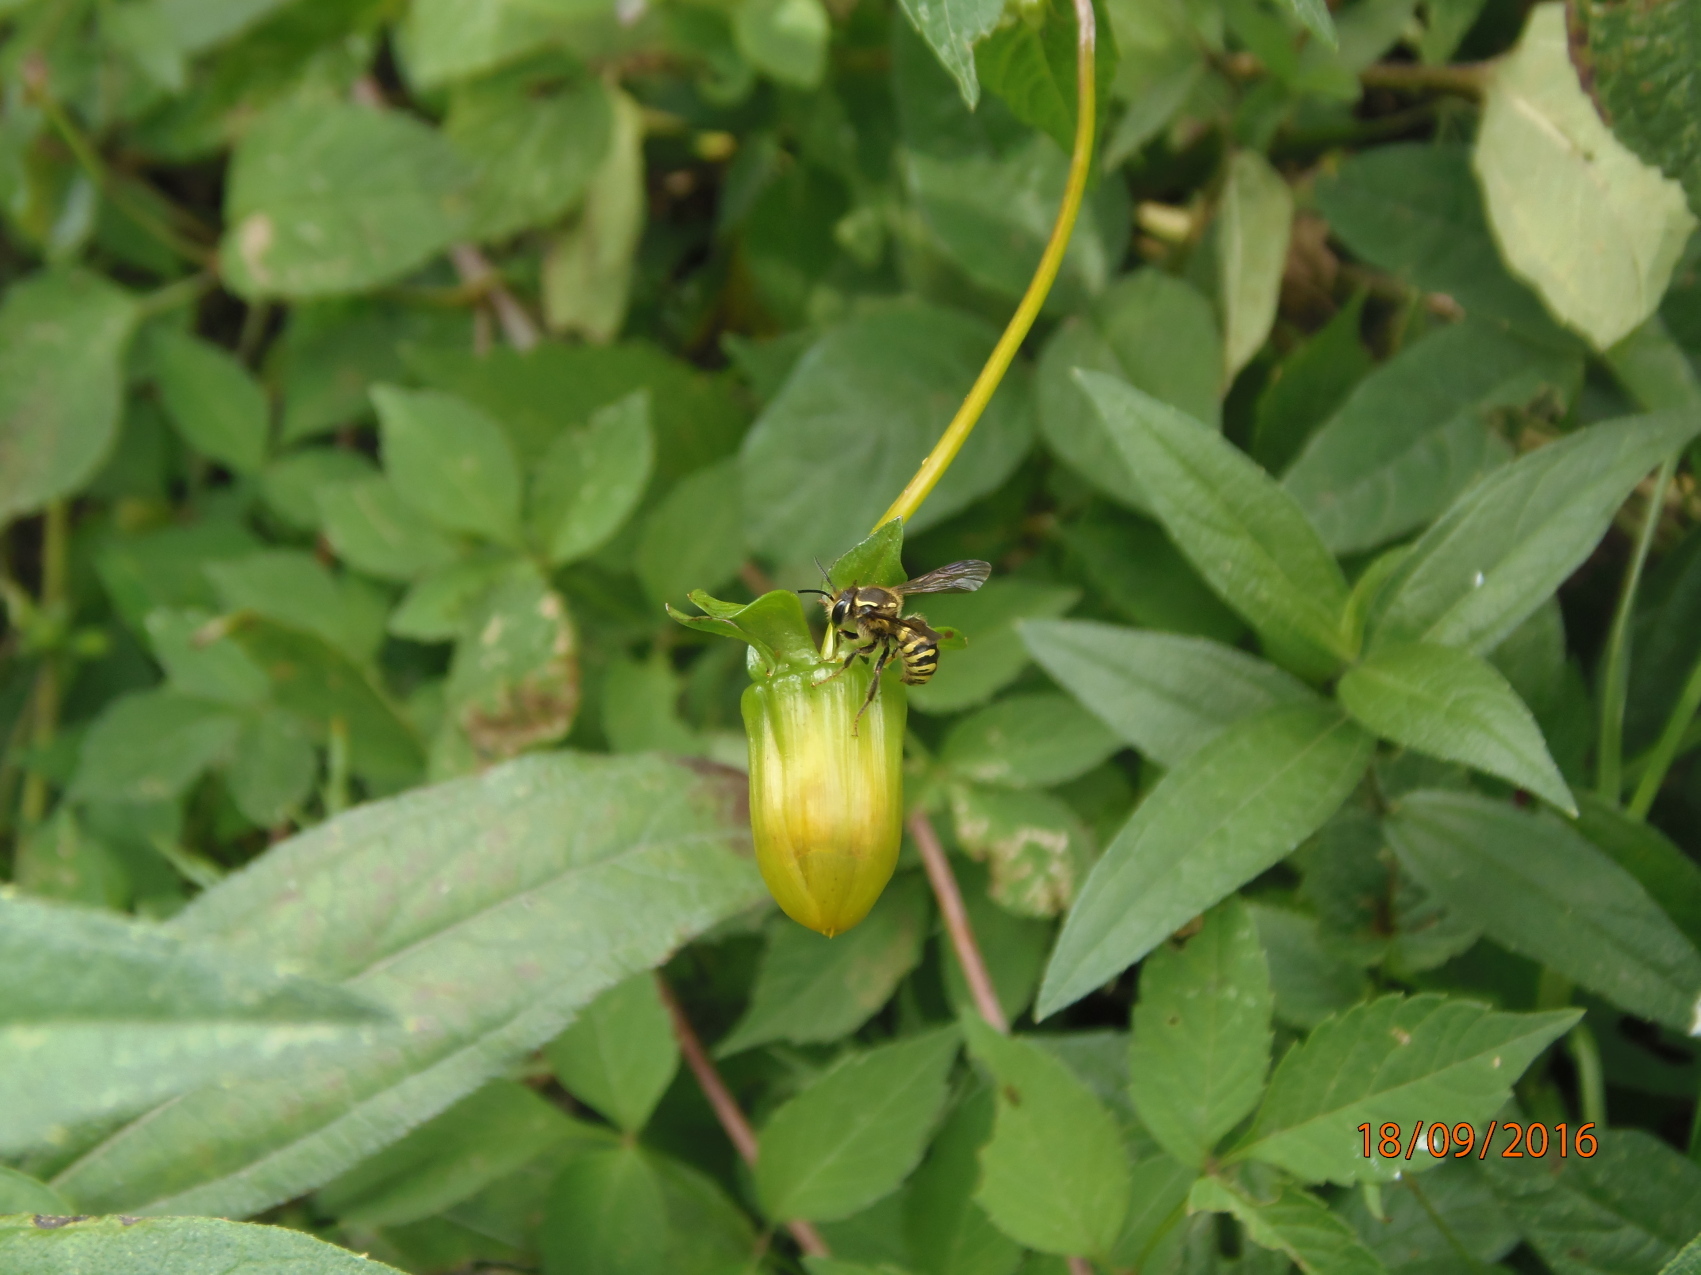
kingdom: Plantae
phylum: Tracheophyta
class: Magnoliopsida
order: Asterales
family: Asteraceae
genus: Dahlia
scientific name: Dahlia coccinea
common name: Red dahlia
